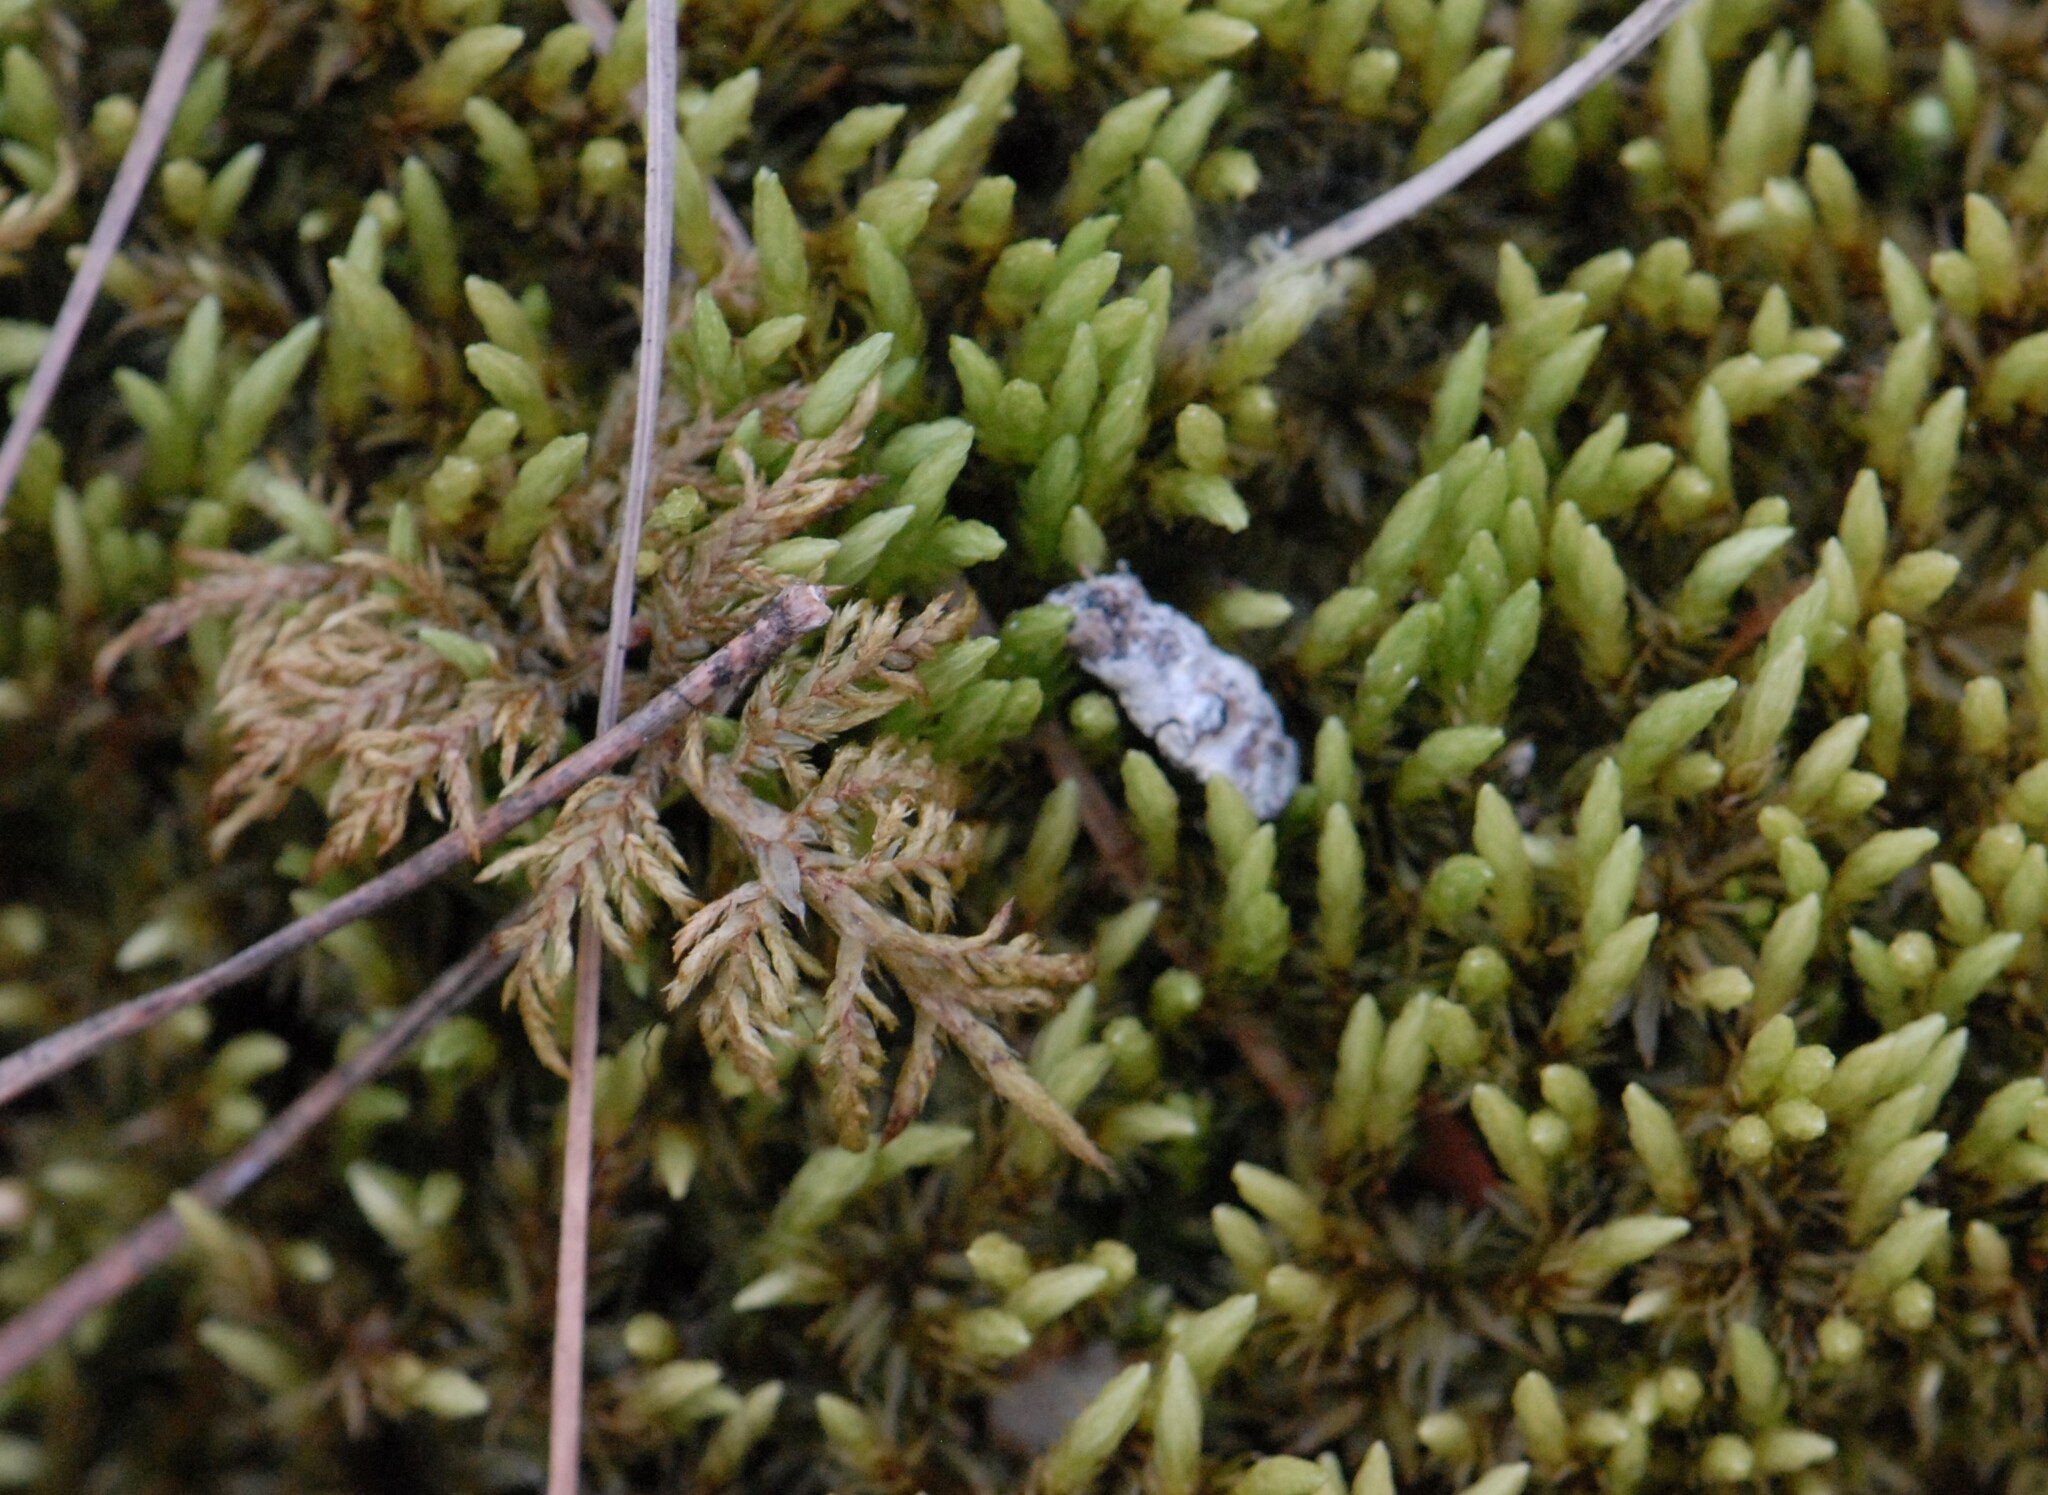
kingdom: Plantae
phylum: Bryophyta
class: Bryopsida
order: Aulacomniales
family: Aulacomniaceae
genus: Aulacomnium
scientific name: Aulacomnium palustre
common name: Bog groove-moss
